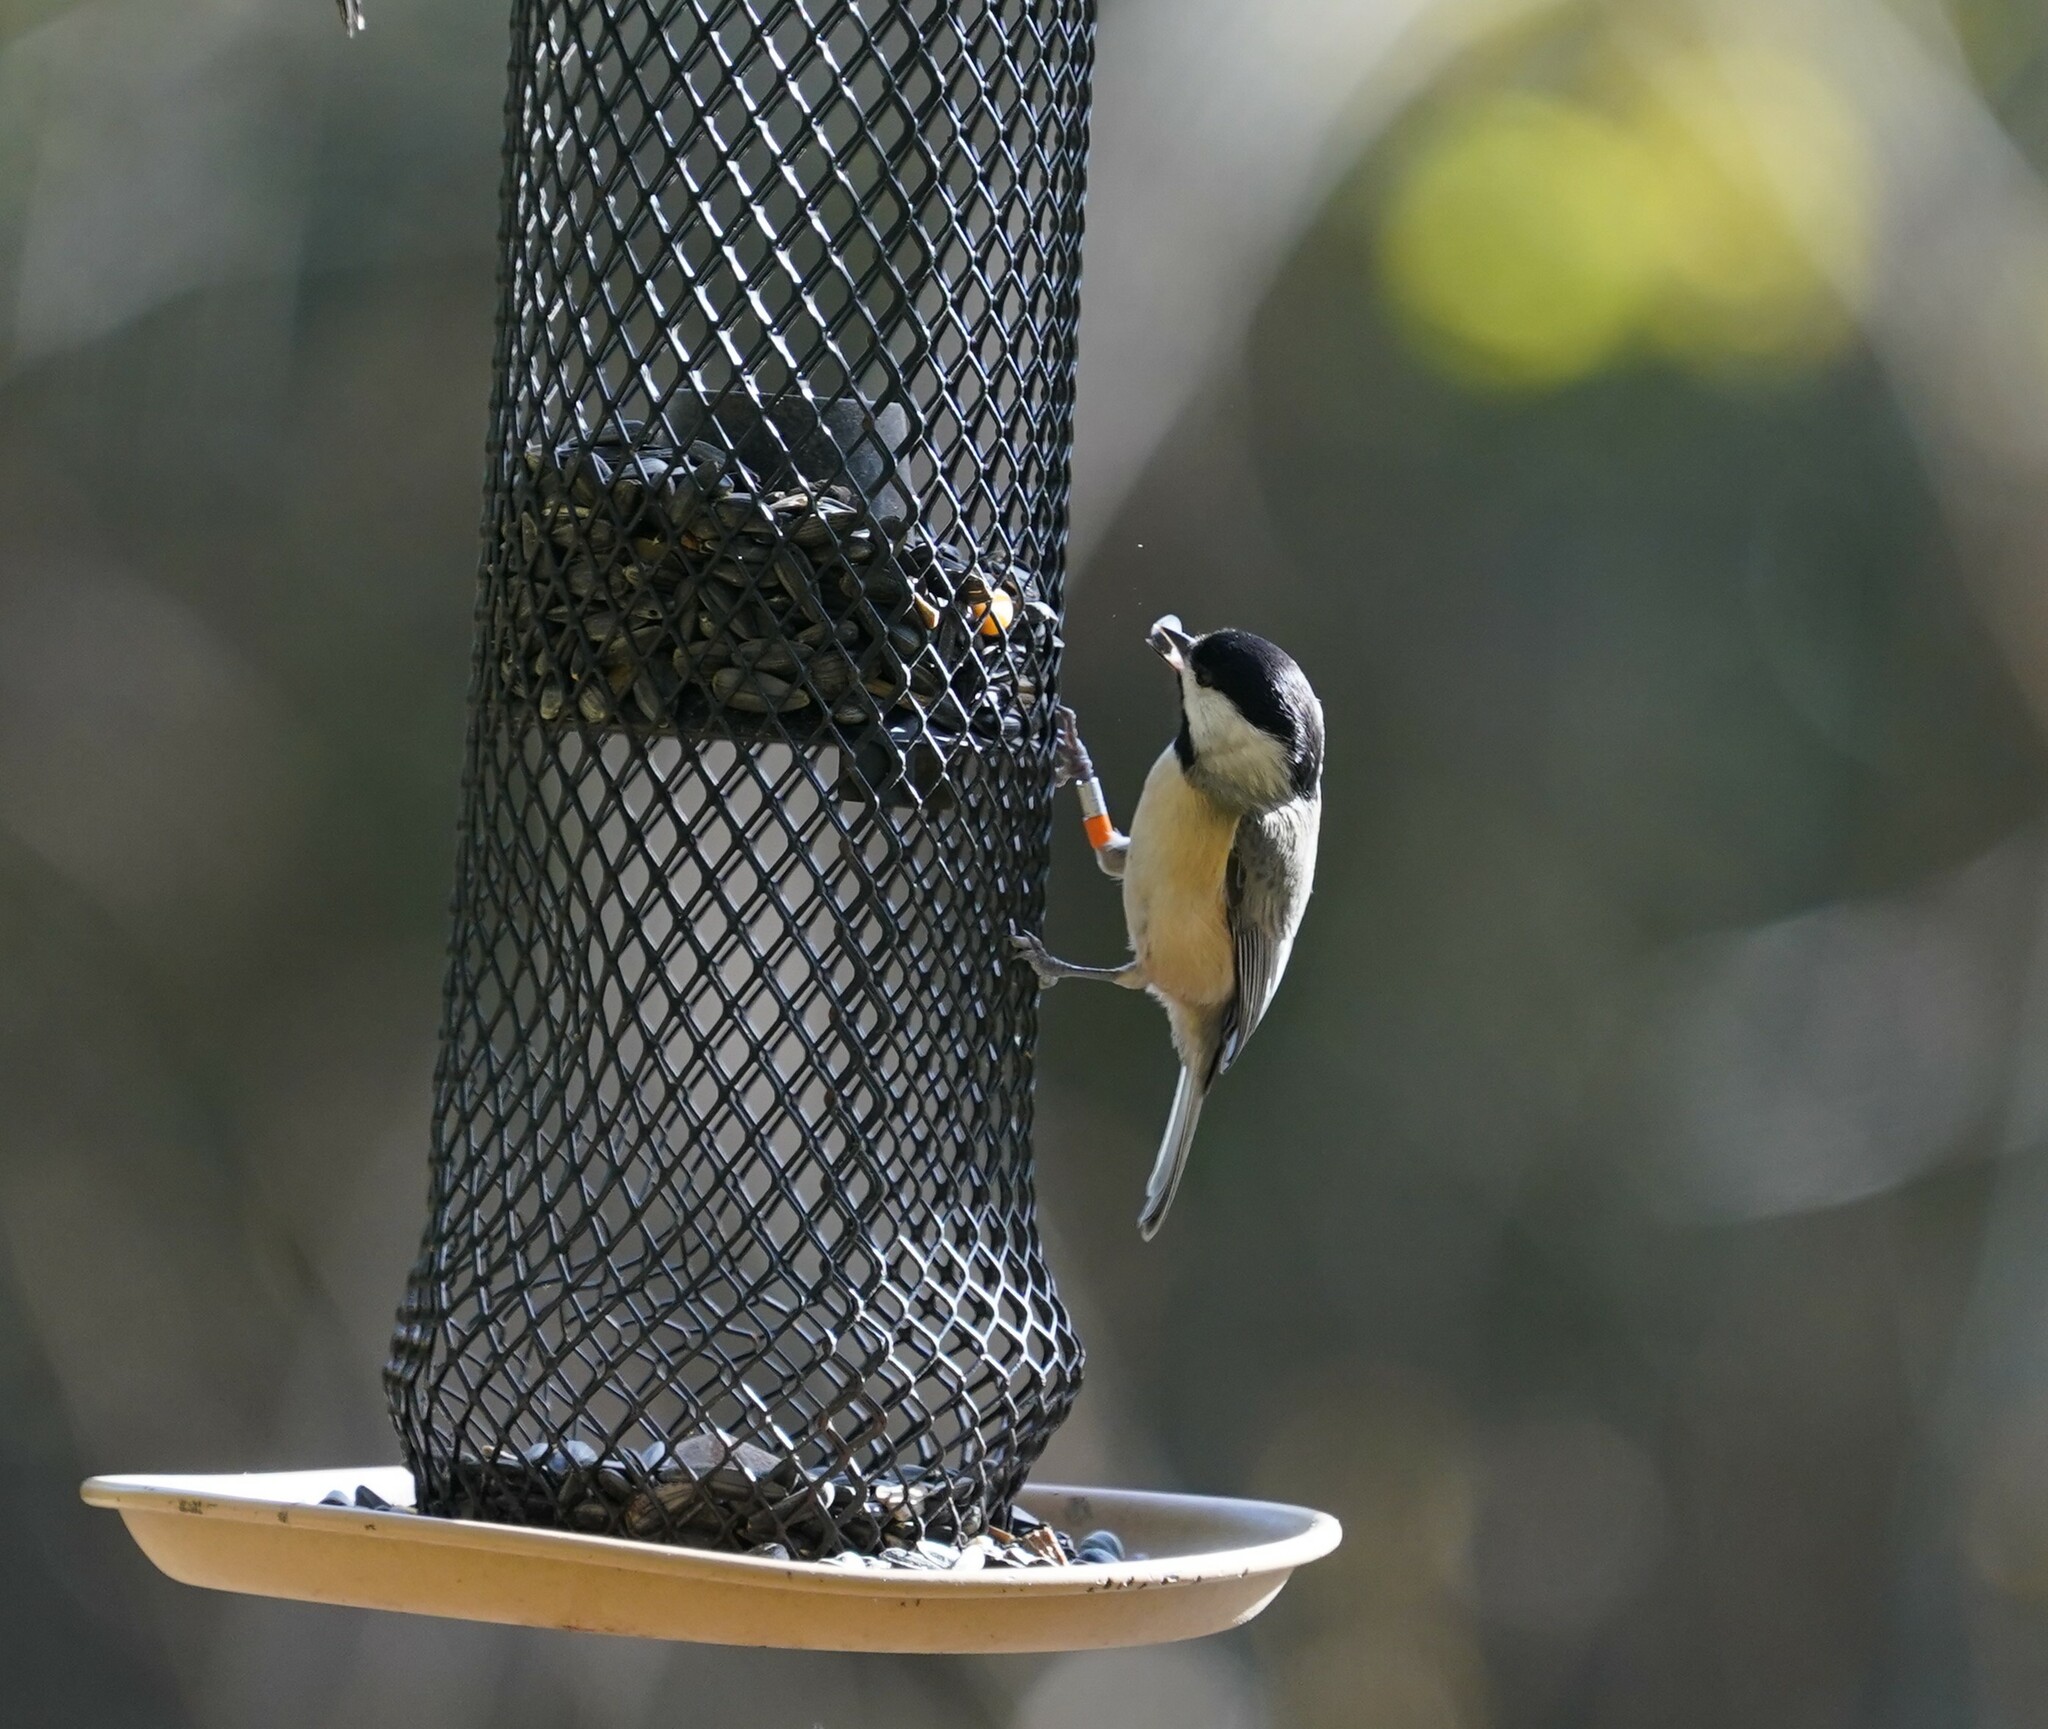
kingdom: Animalia
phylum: Chordata
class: Aves
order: Passeriformes
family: Paridae
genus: Poecile
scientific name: Poecile carolinensis
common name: Carolina chickadee
